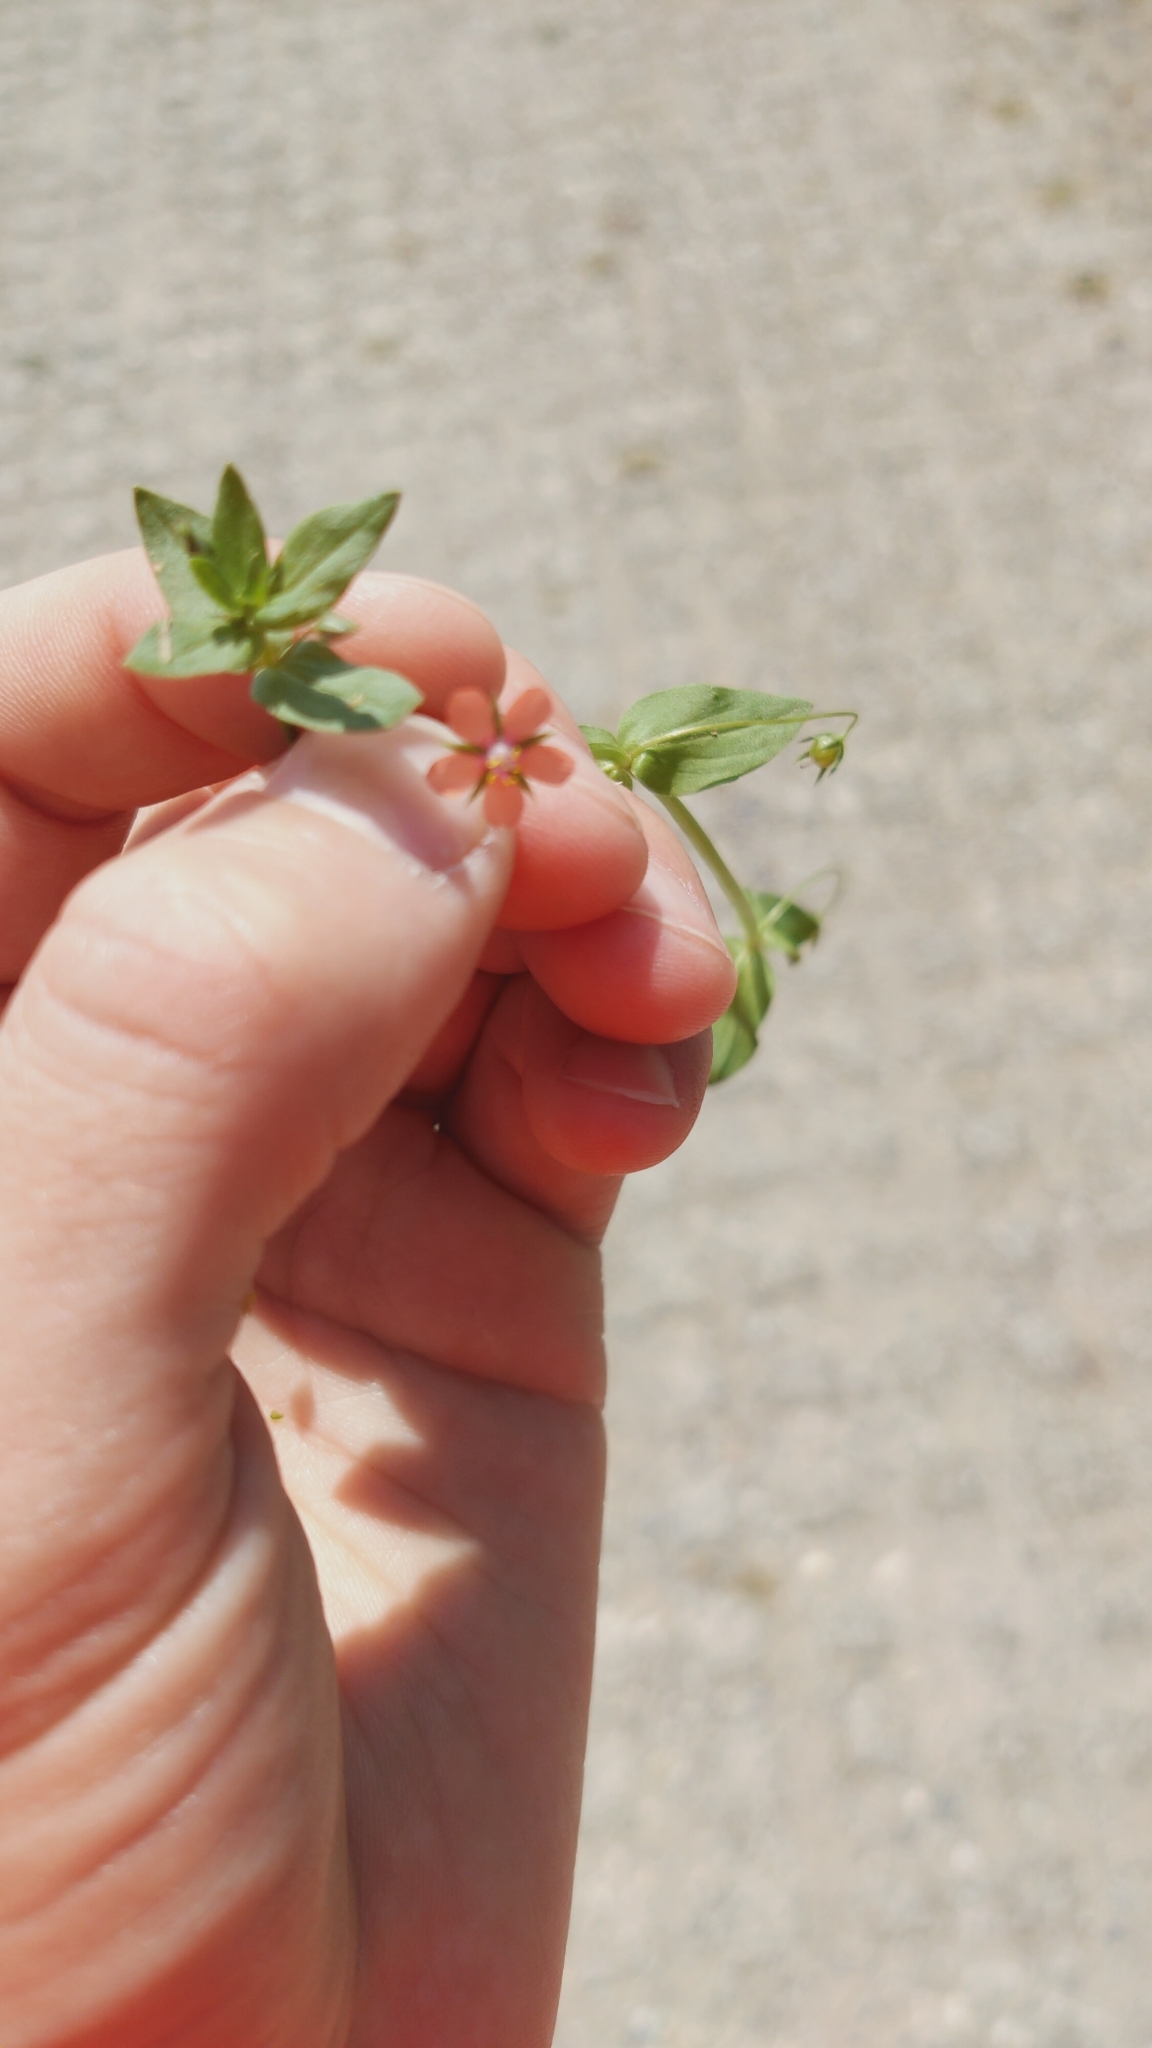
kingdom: Plantae
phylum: Tracheophyta
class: Magnoliopsida
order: Ericales
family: Primulaceae
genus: Lysimachia
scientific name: Lysimachia arvensis
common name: Scarlet pimpernel
